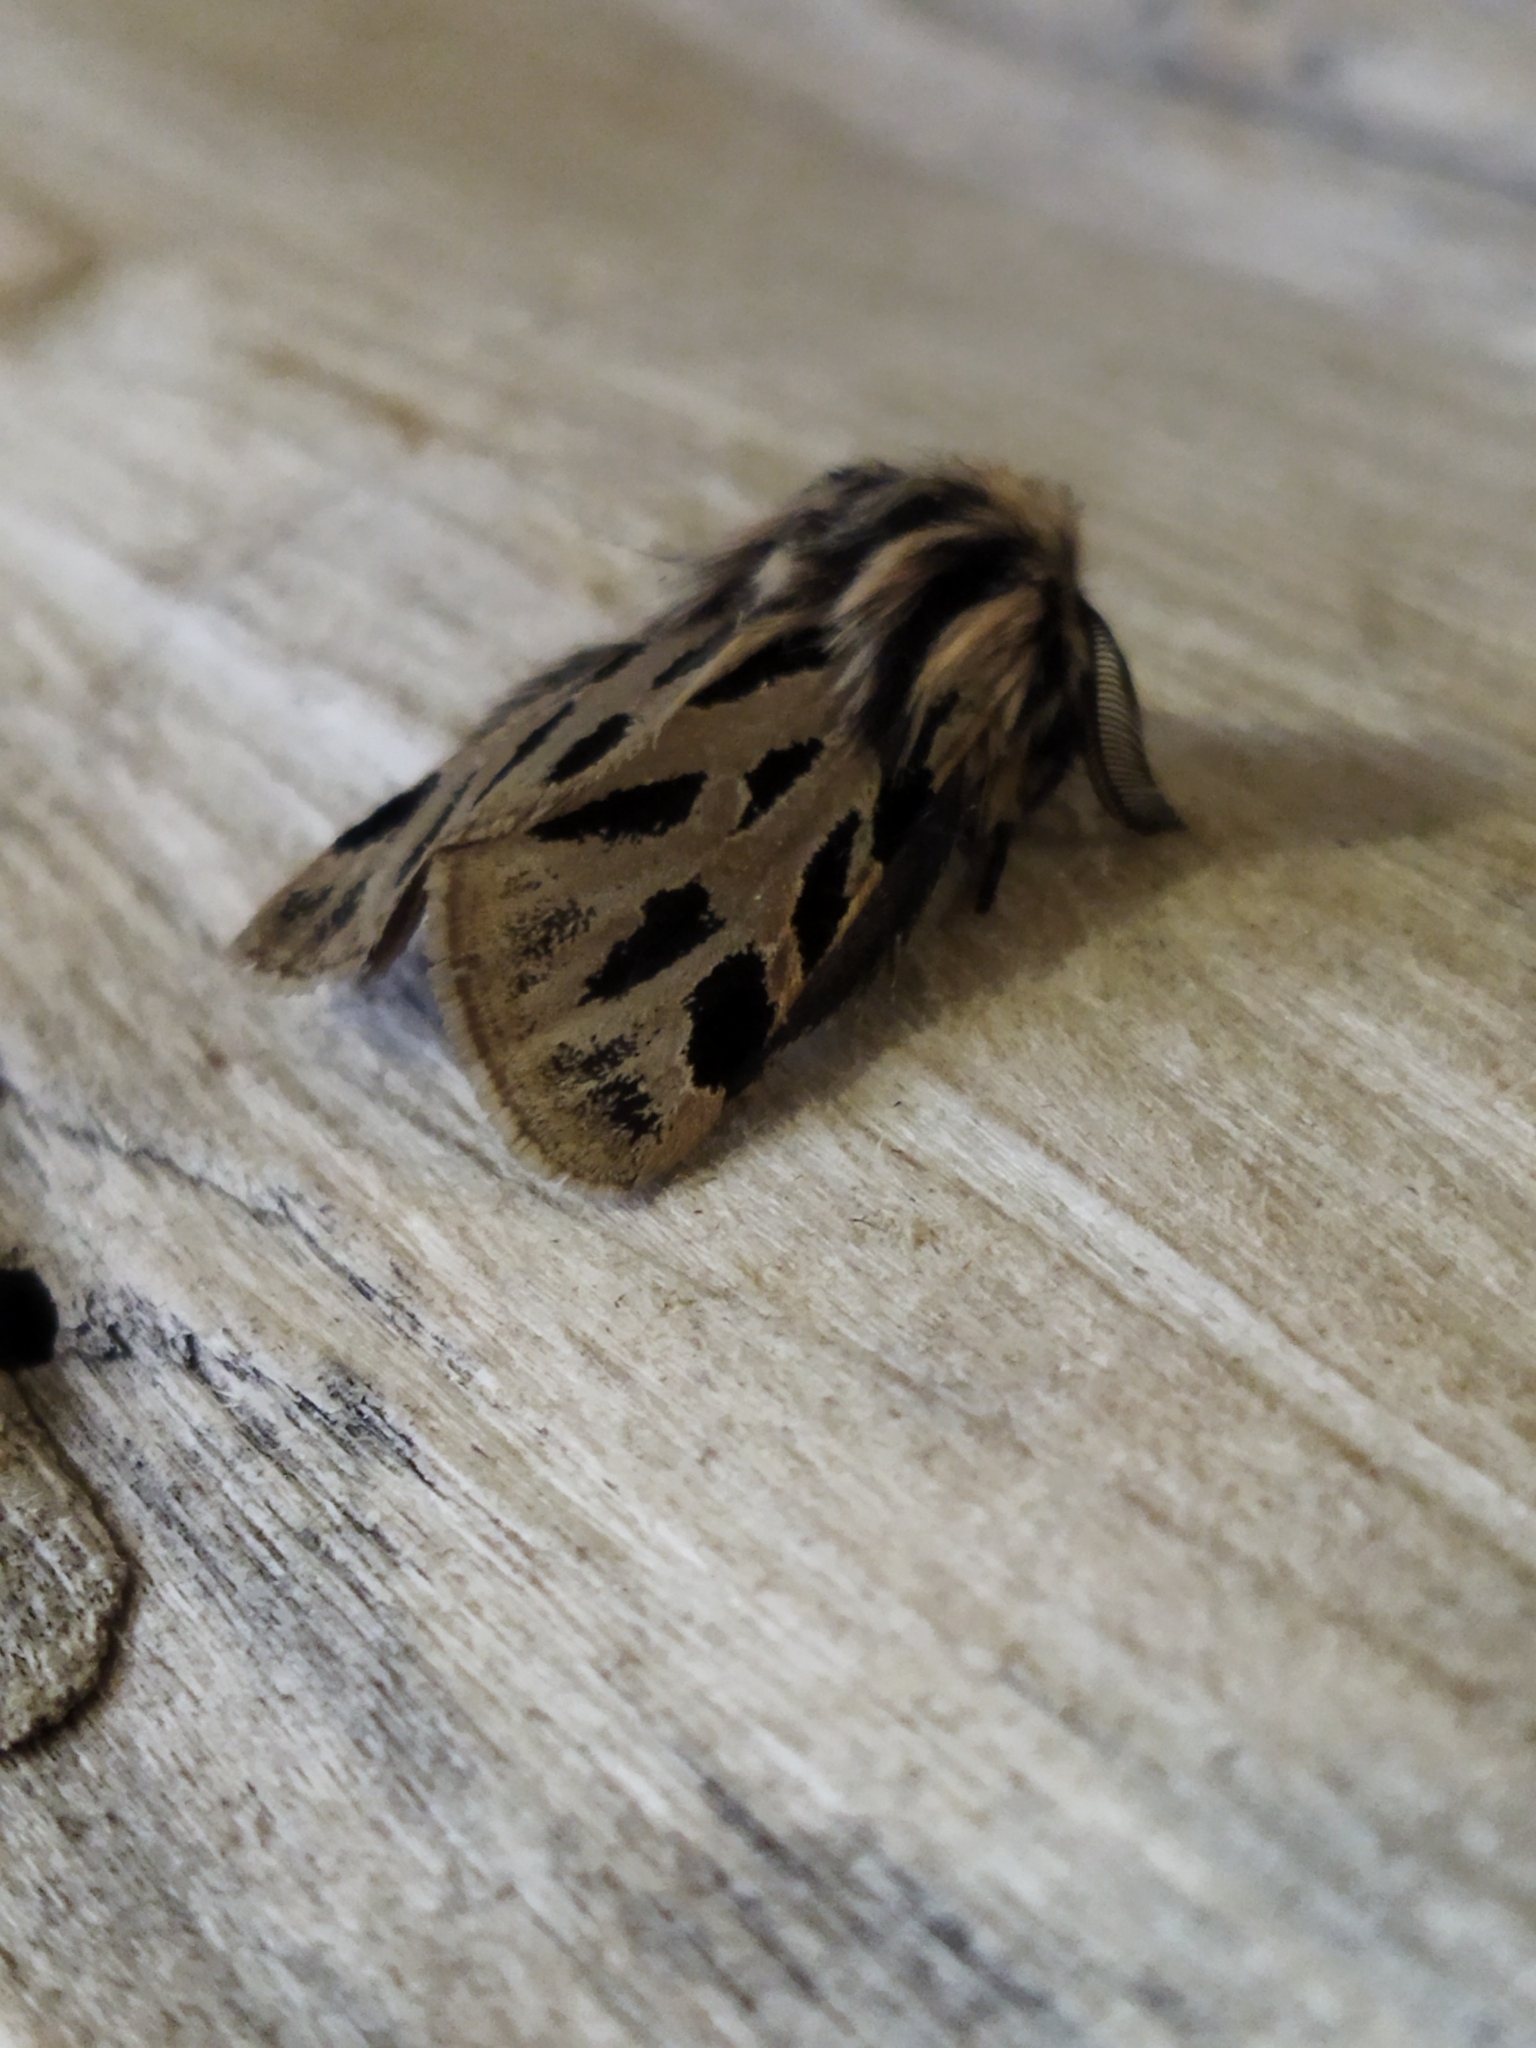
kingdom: Animalia
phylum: Arthropoda
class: Insecta
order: Lepidoptera
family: Erebidae
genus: Ocnogyna
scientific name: Ocnogyna parasita
